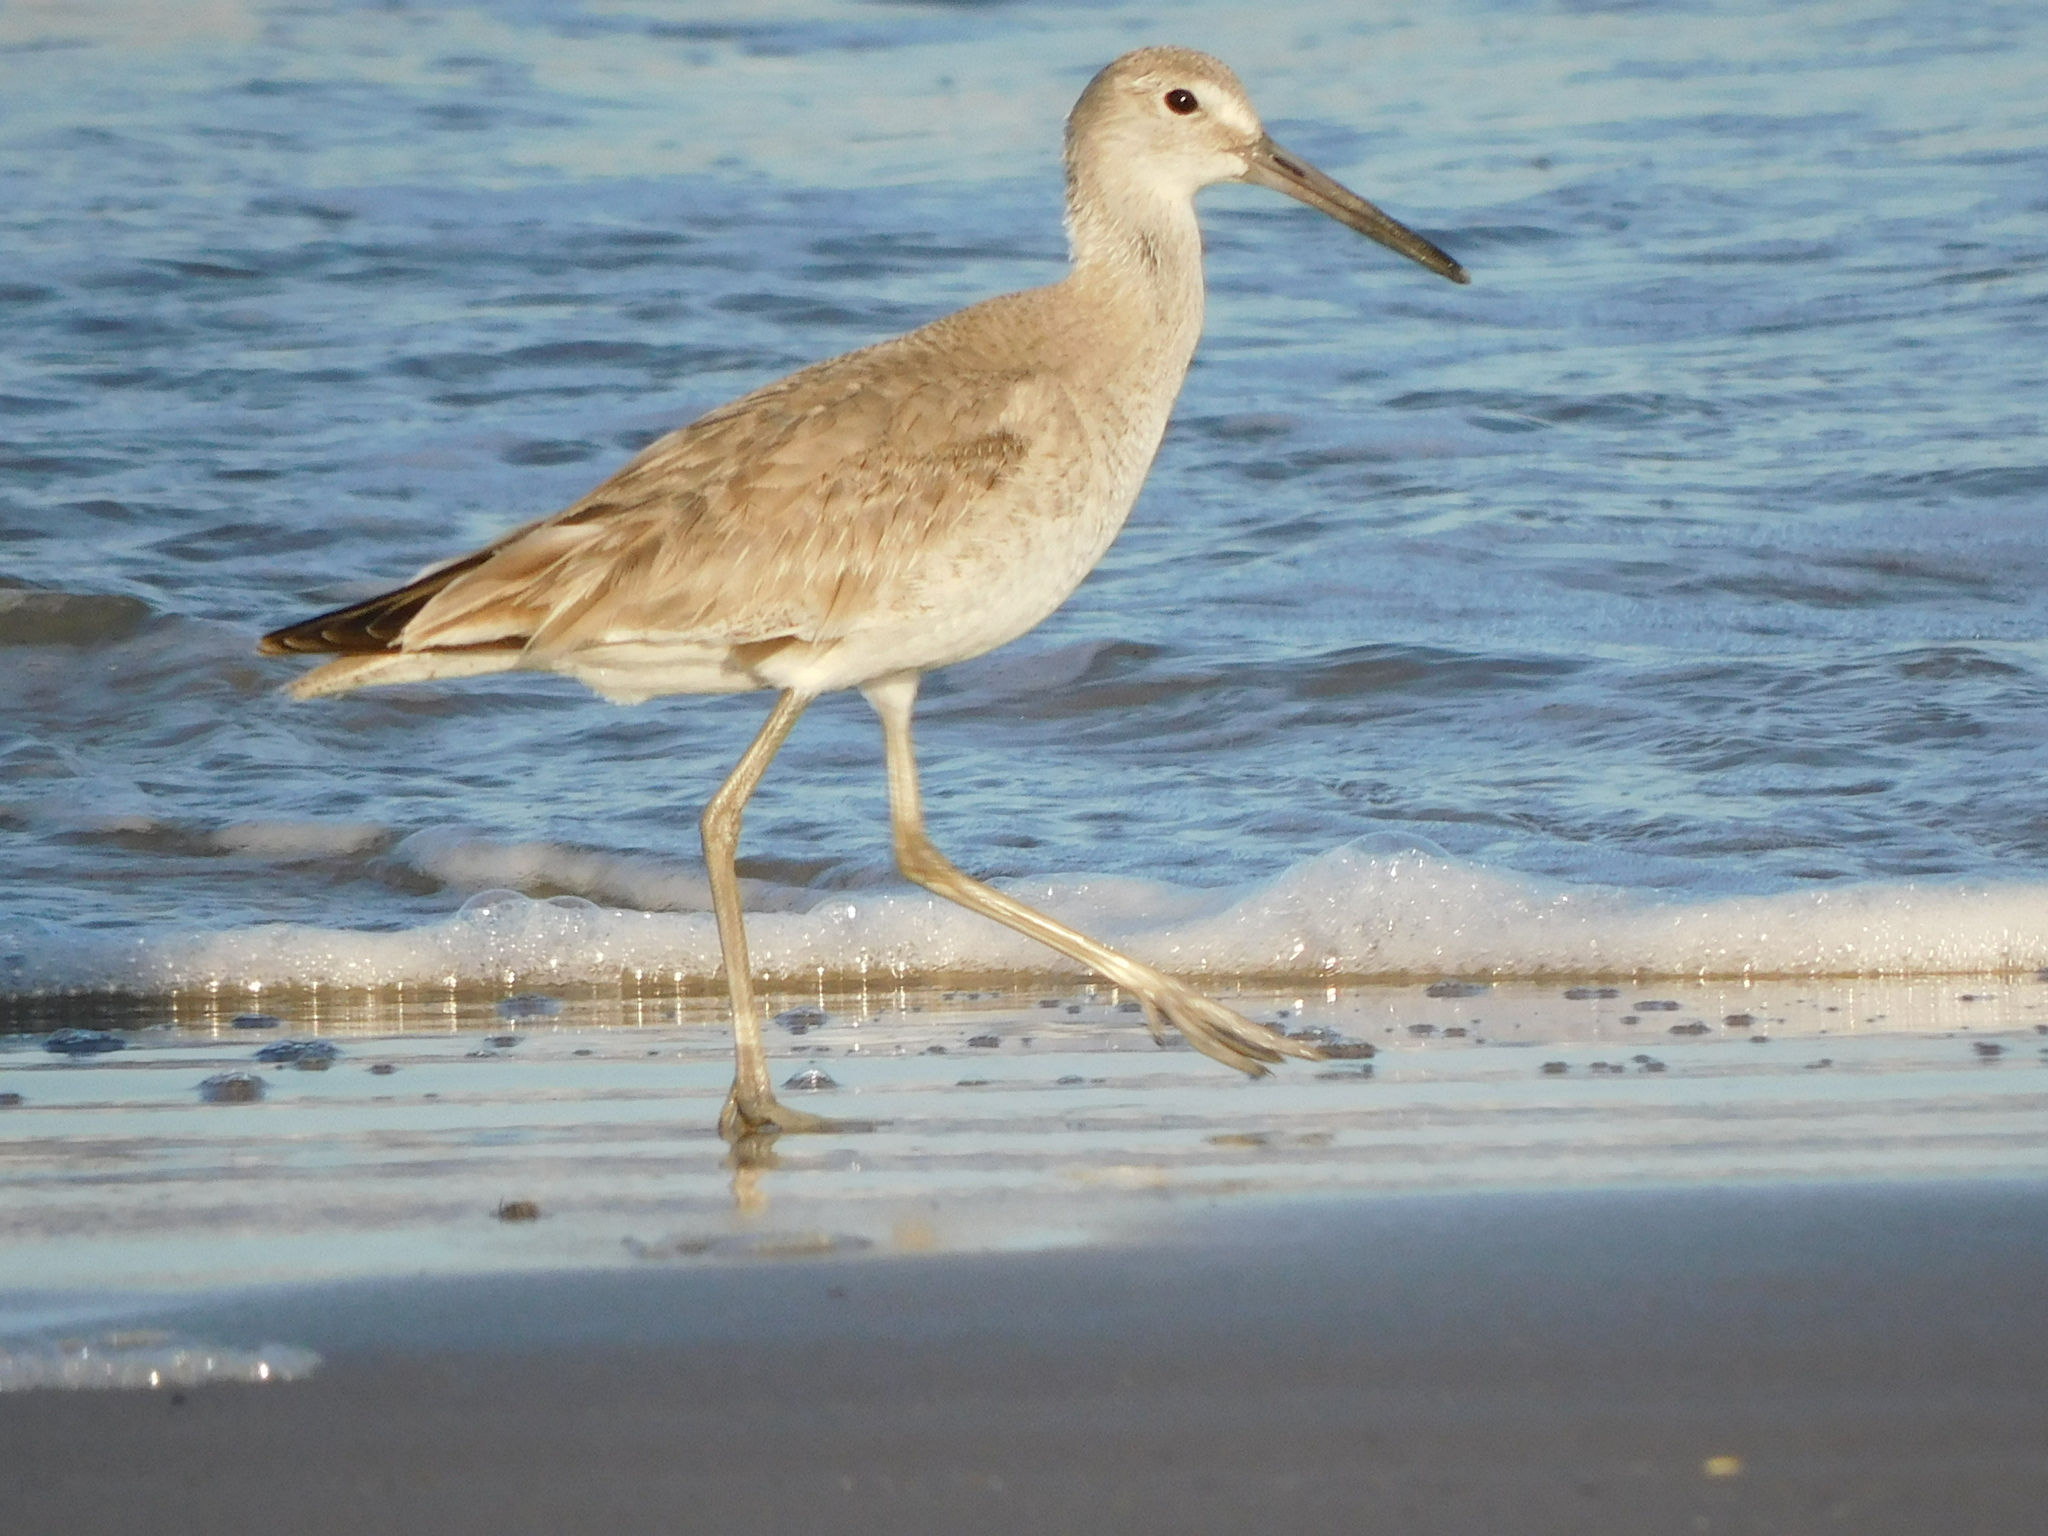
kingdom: Animalia
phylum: Chordata
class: Aves
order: Charadriiformes
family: Scolopacidae
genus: Tringa
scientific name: Tringa semipalmata
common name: Willet
